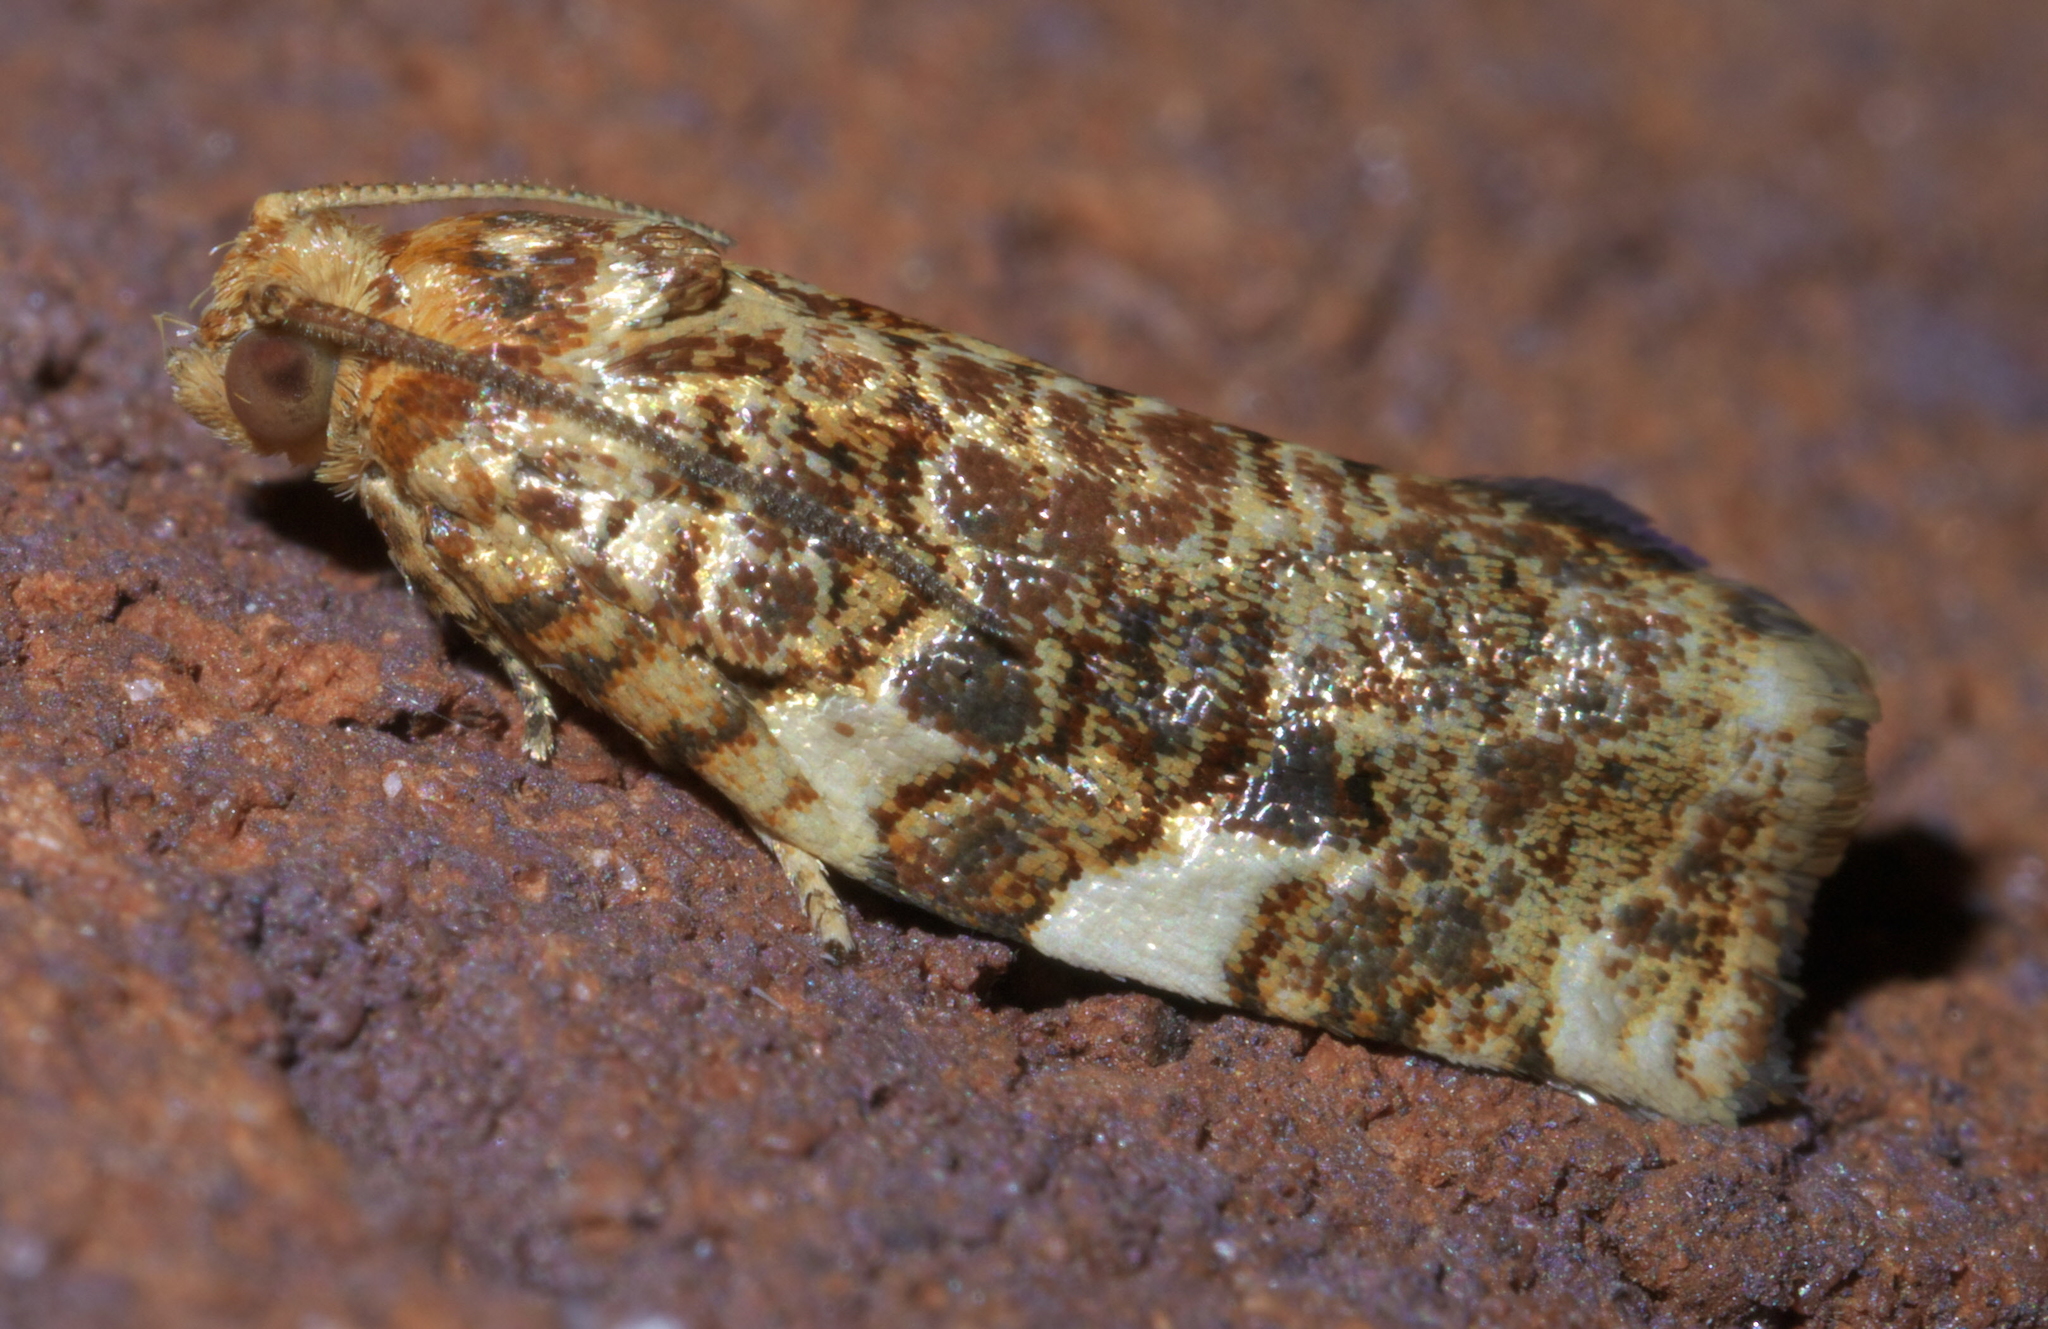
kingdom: Animalia
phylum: Arthropoda
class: Insecta
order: Lepidoptera
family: Tortricidae
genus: Archips
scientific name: Archips argyrospila
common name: Fruit-tree leafroller moth
